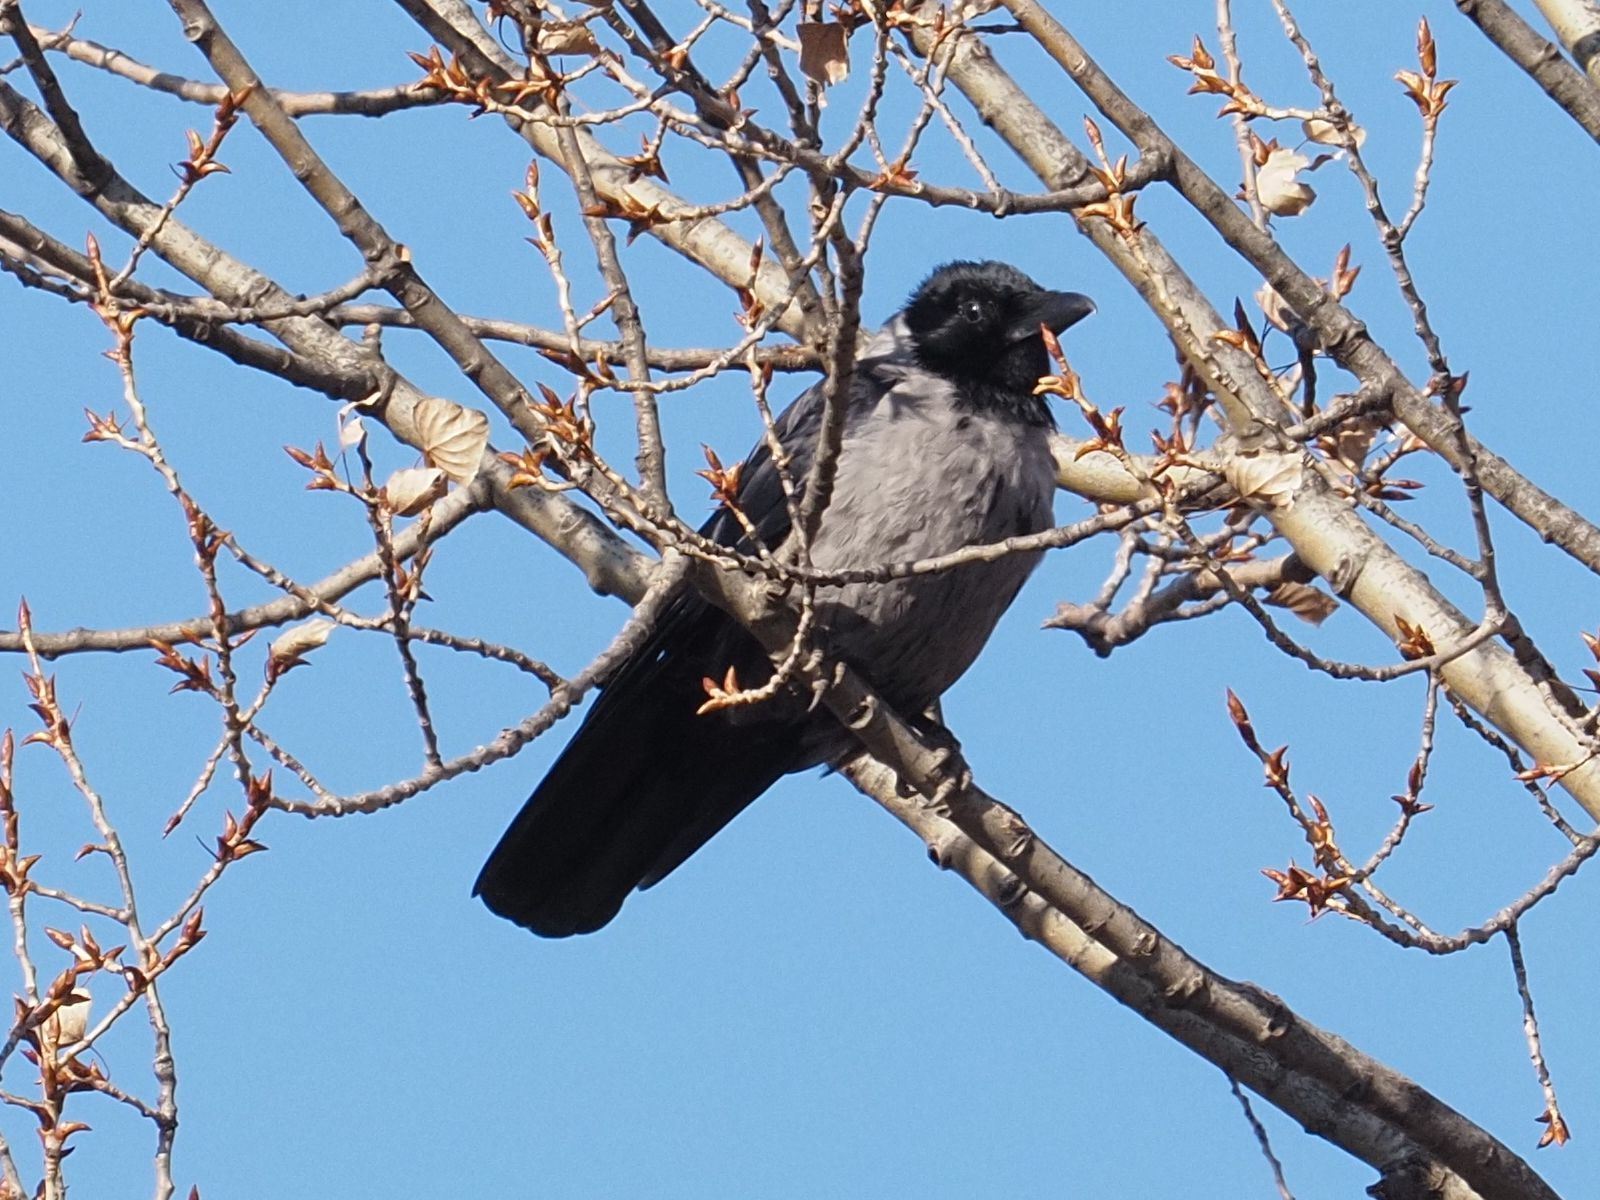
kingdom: Animalia
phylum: Chordata
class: Aves
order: Passeriformes
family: Corvidae
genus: Corvus
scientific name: Corvus
